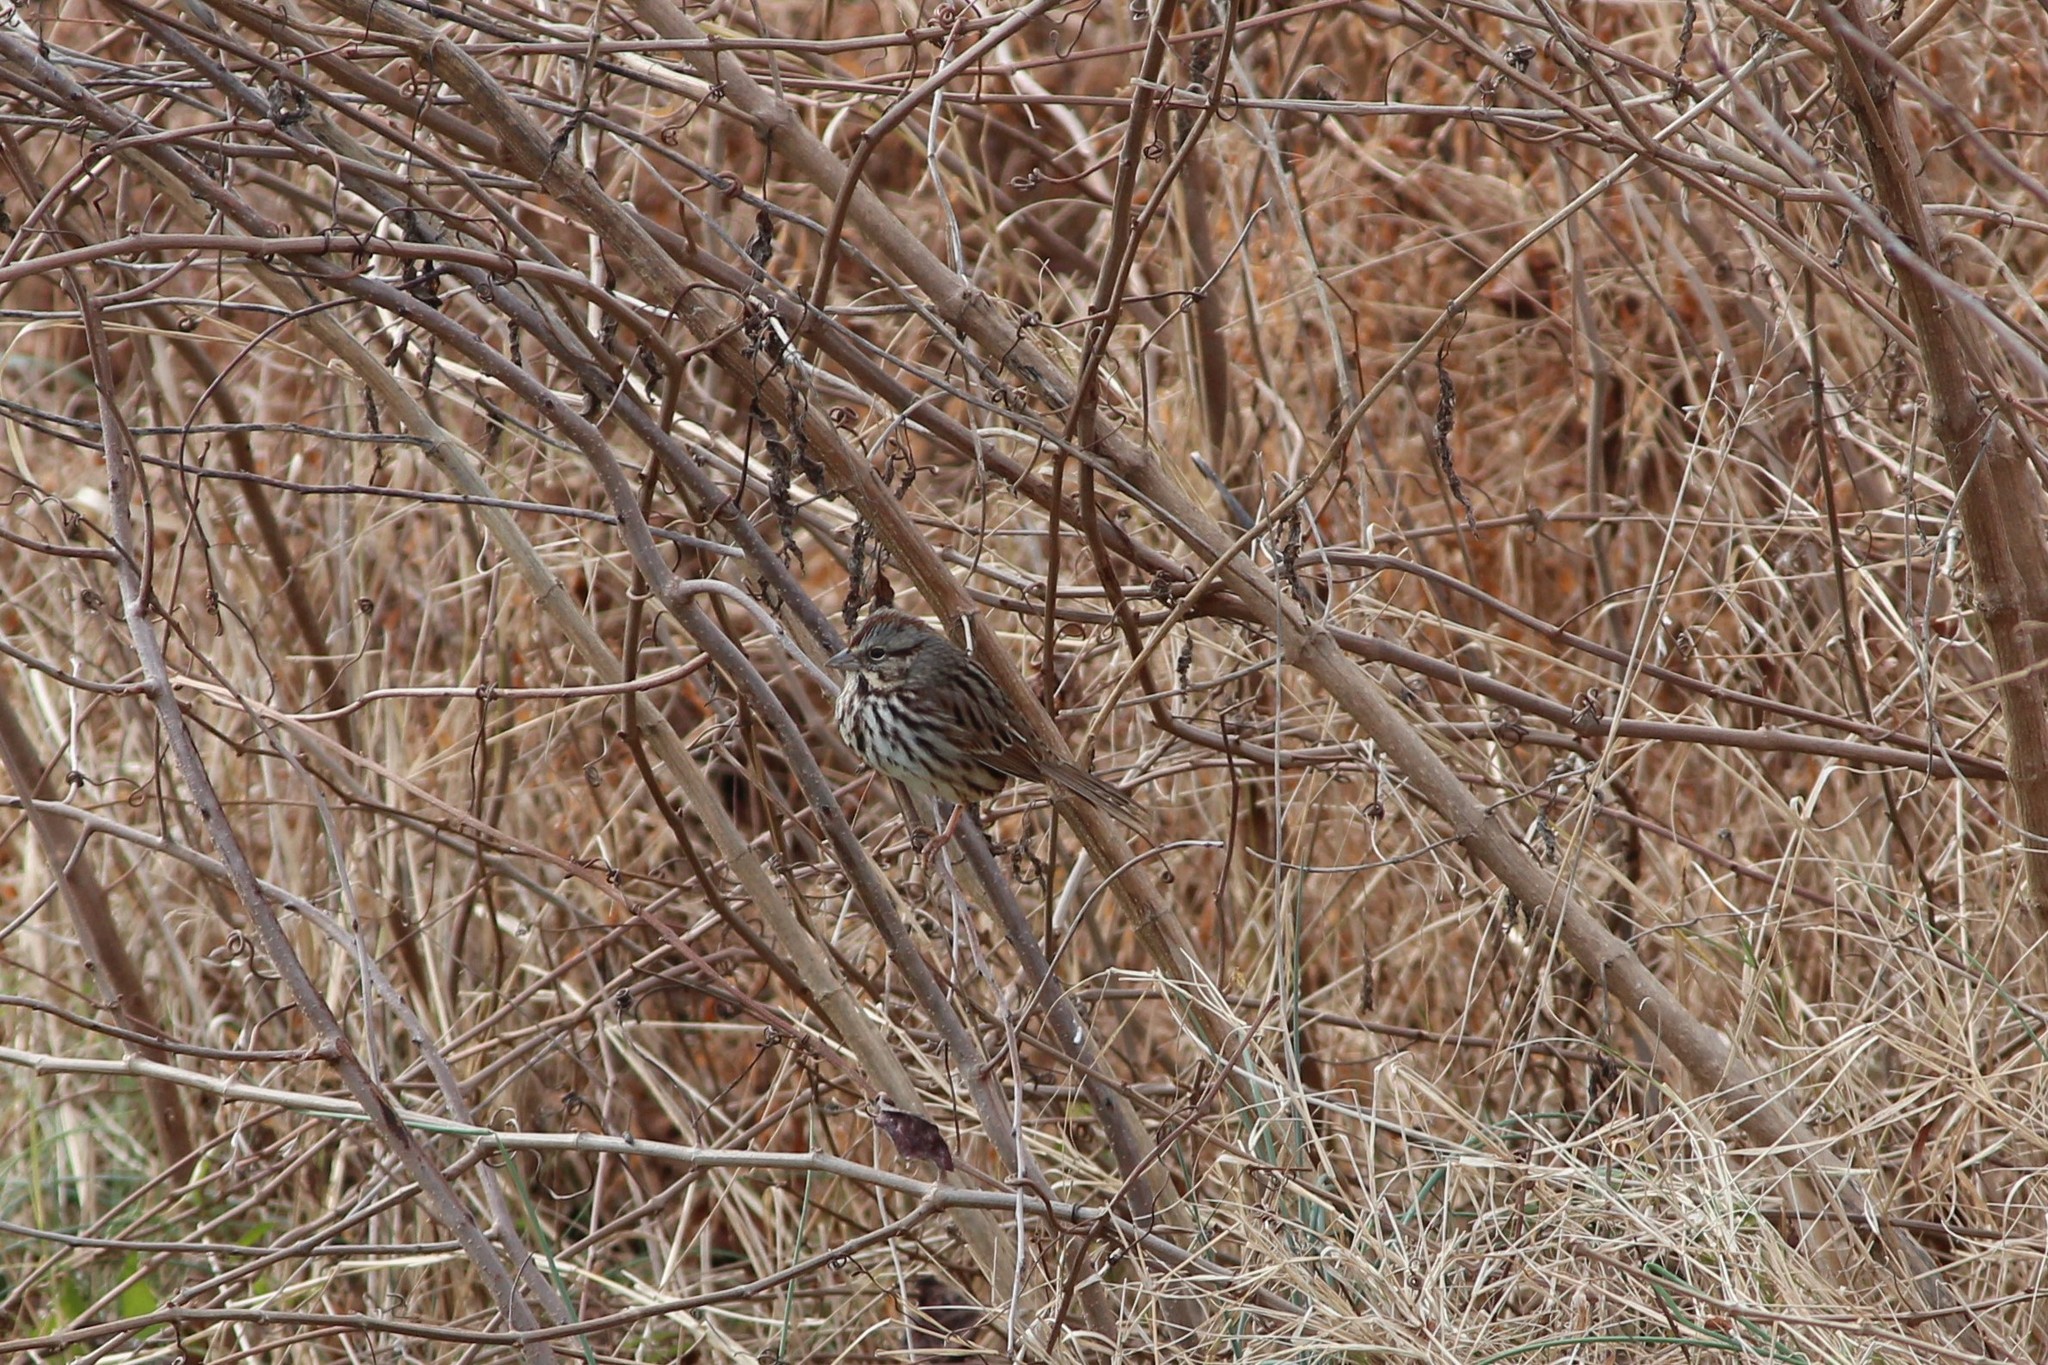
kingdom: Animalia
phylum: Chordata
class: Aves
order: Passeriformes
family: Passerellidae
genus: Melospiza
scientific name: Melospiza melodia
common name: Song sparrow
